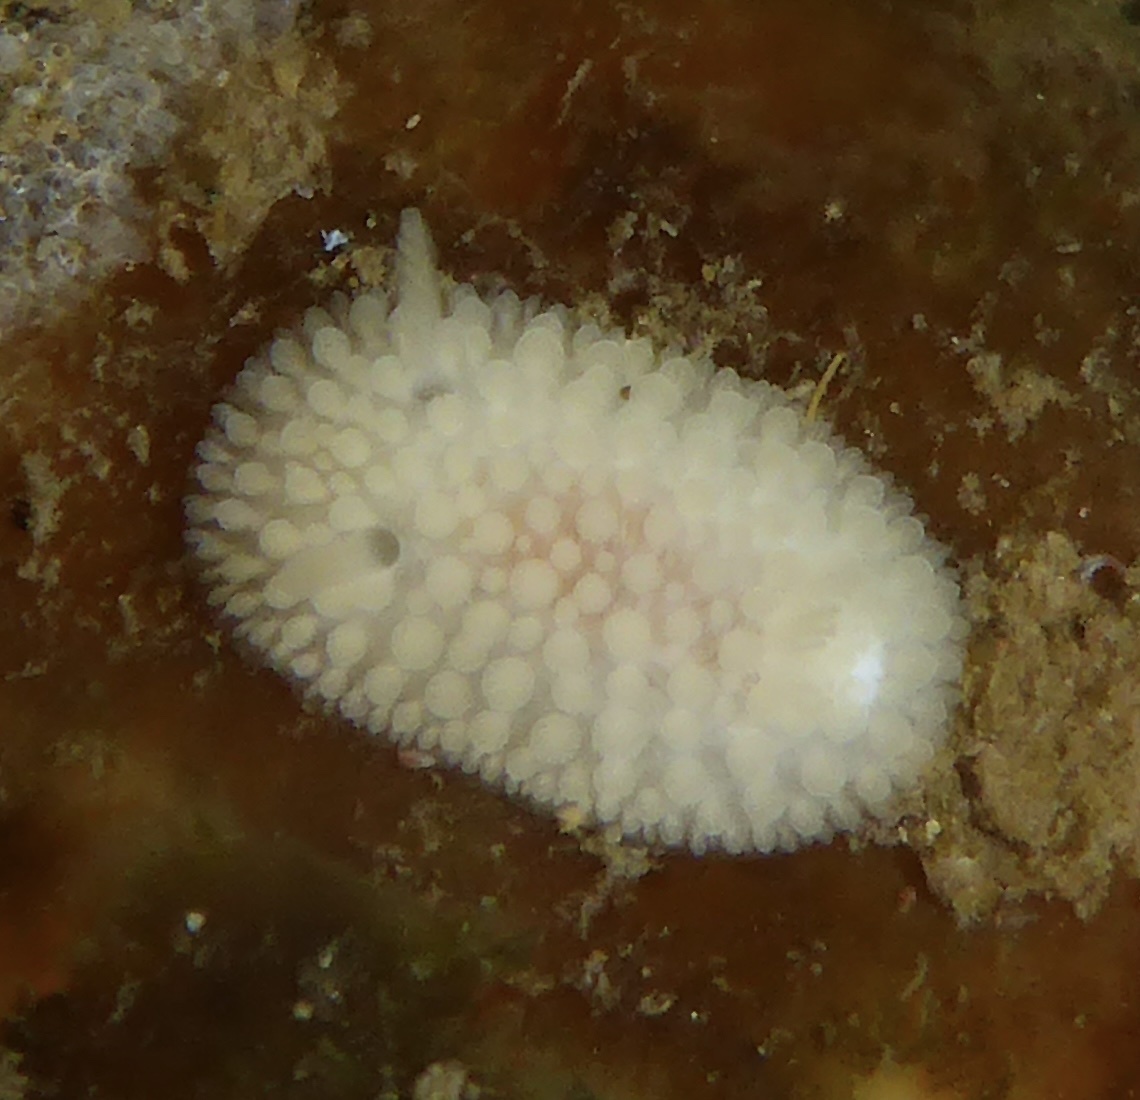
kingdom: Animalia
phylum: Mollusca
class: Gastropoda
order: Nudibranchia
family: Onchidorididae
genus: Atalodoris
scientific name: Atalodoris jannae
